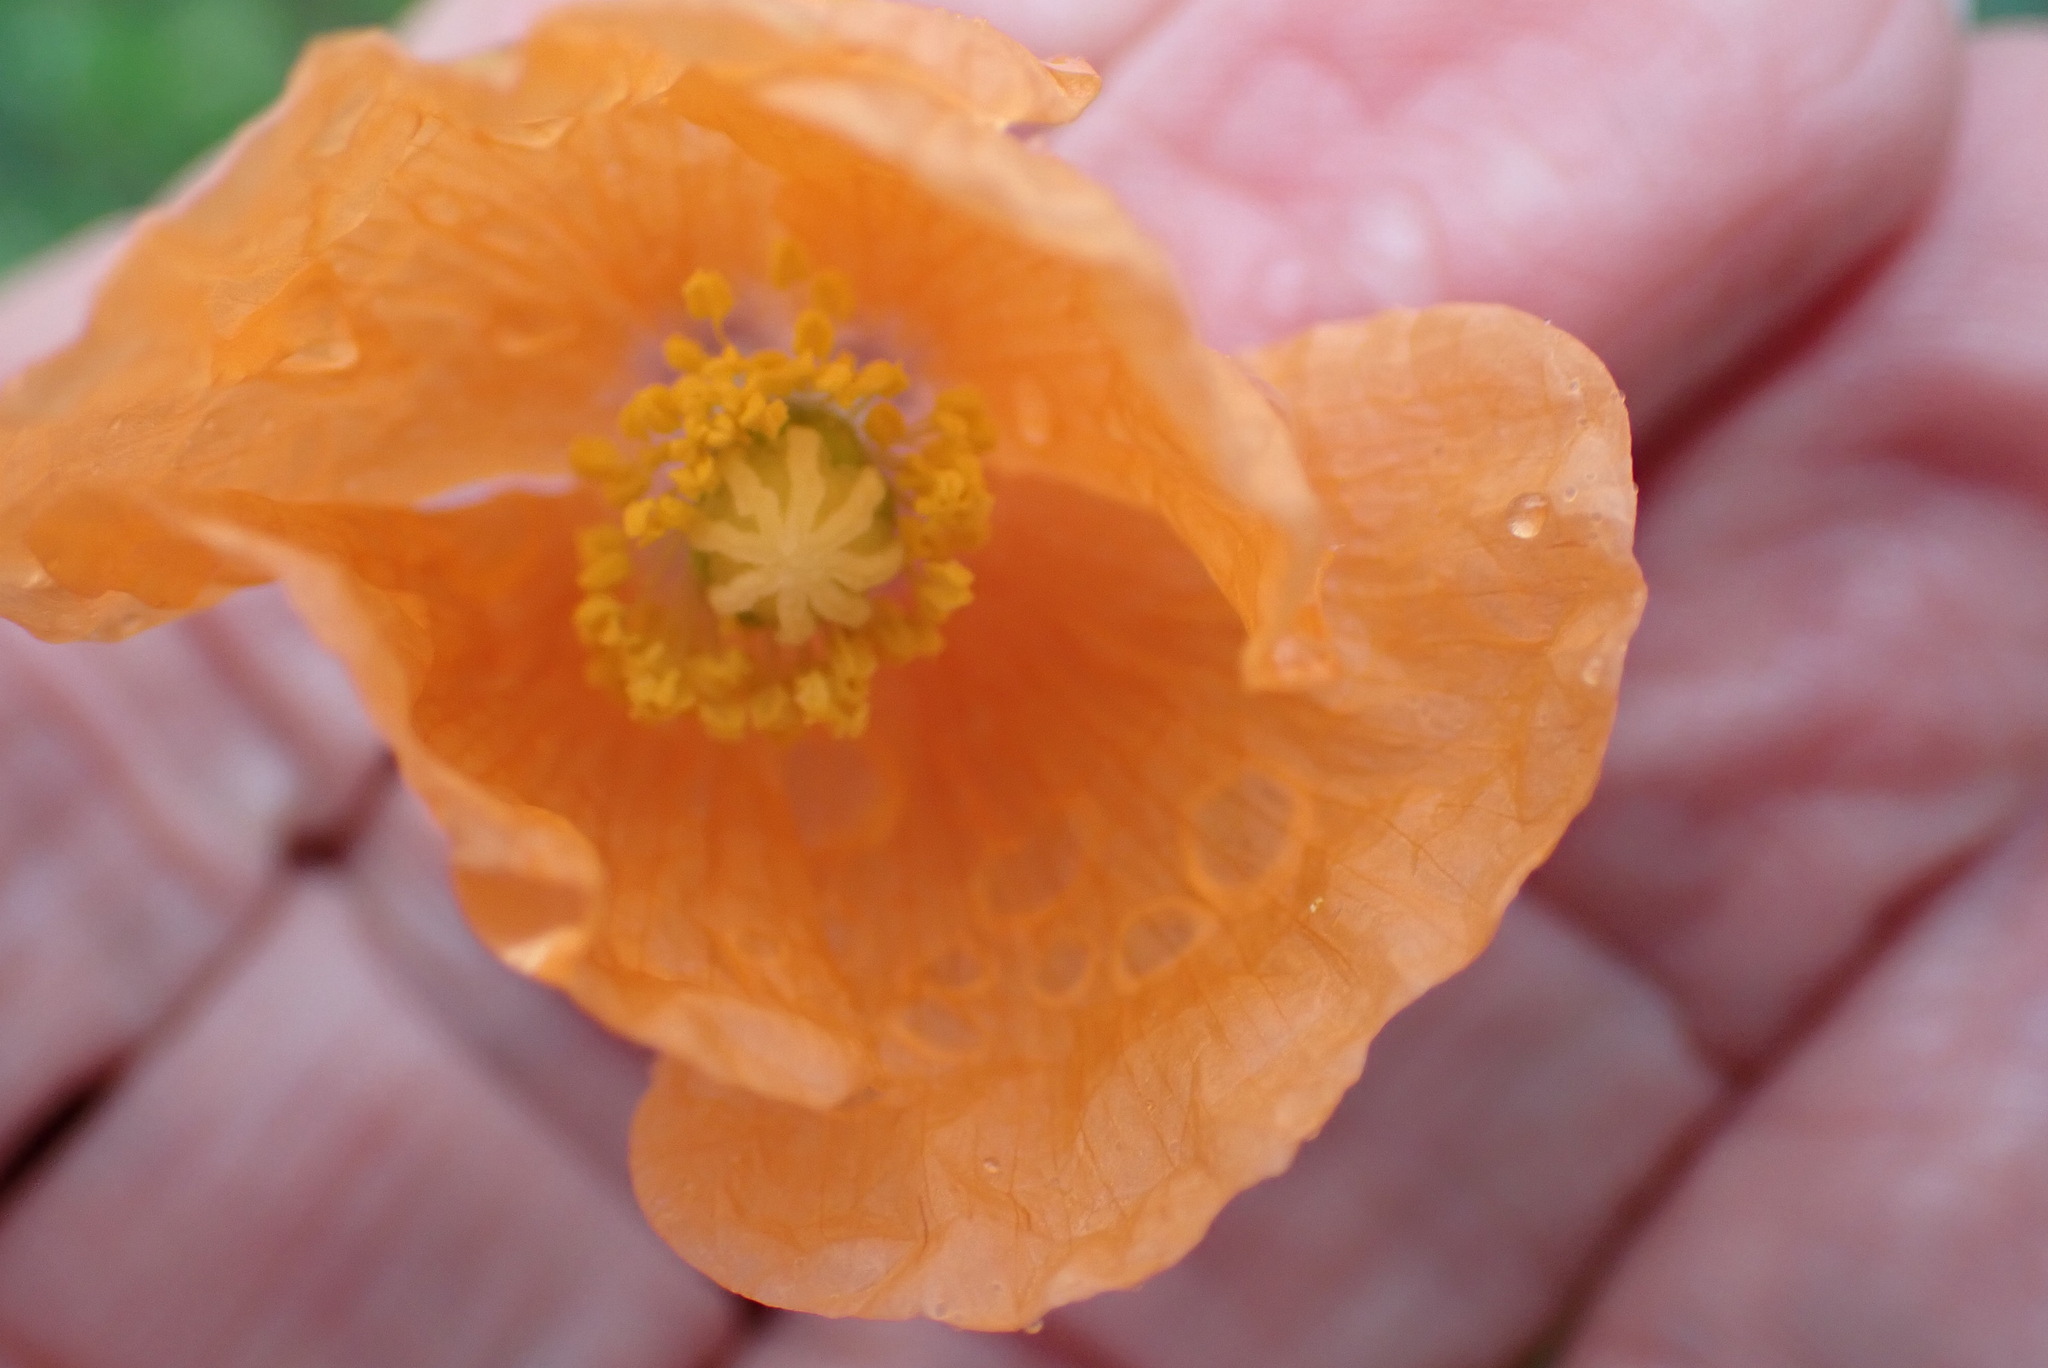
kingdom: Plantae
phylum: Tracheophyta
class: Magnoliopsida
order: Ranunculales
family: Papaveraceae
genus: Papaver
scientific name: Papaver aculeatum
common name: Bristle poppy
